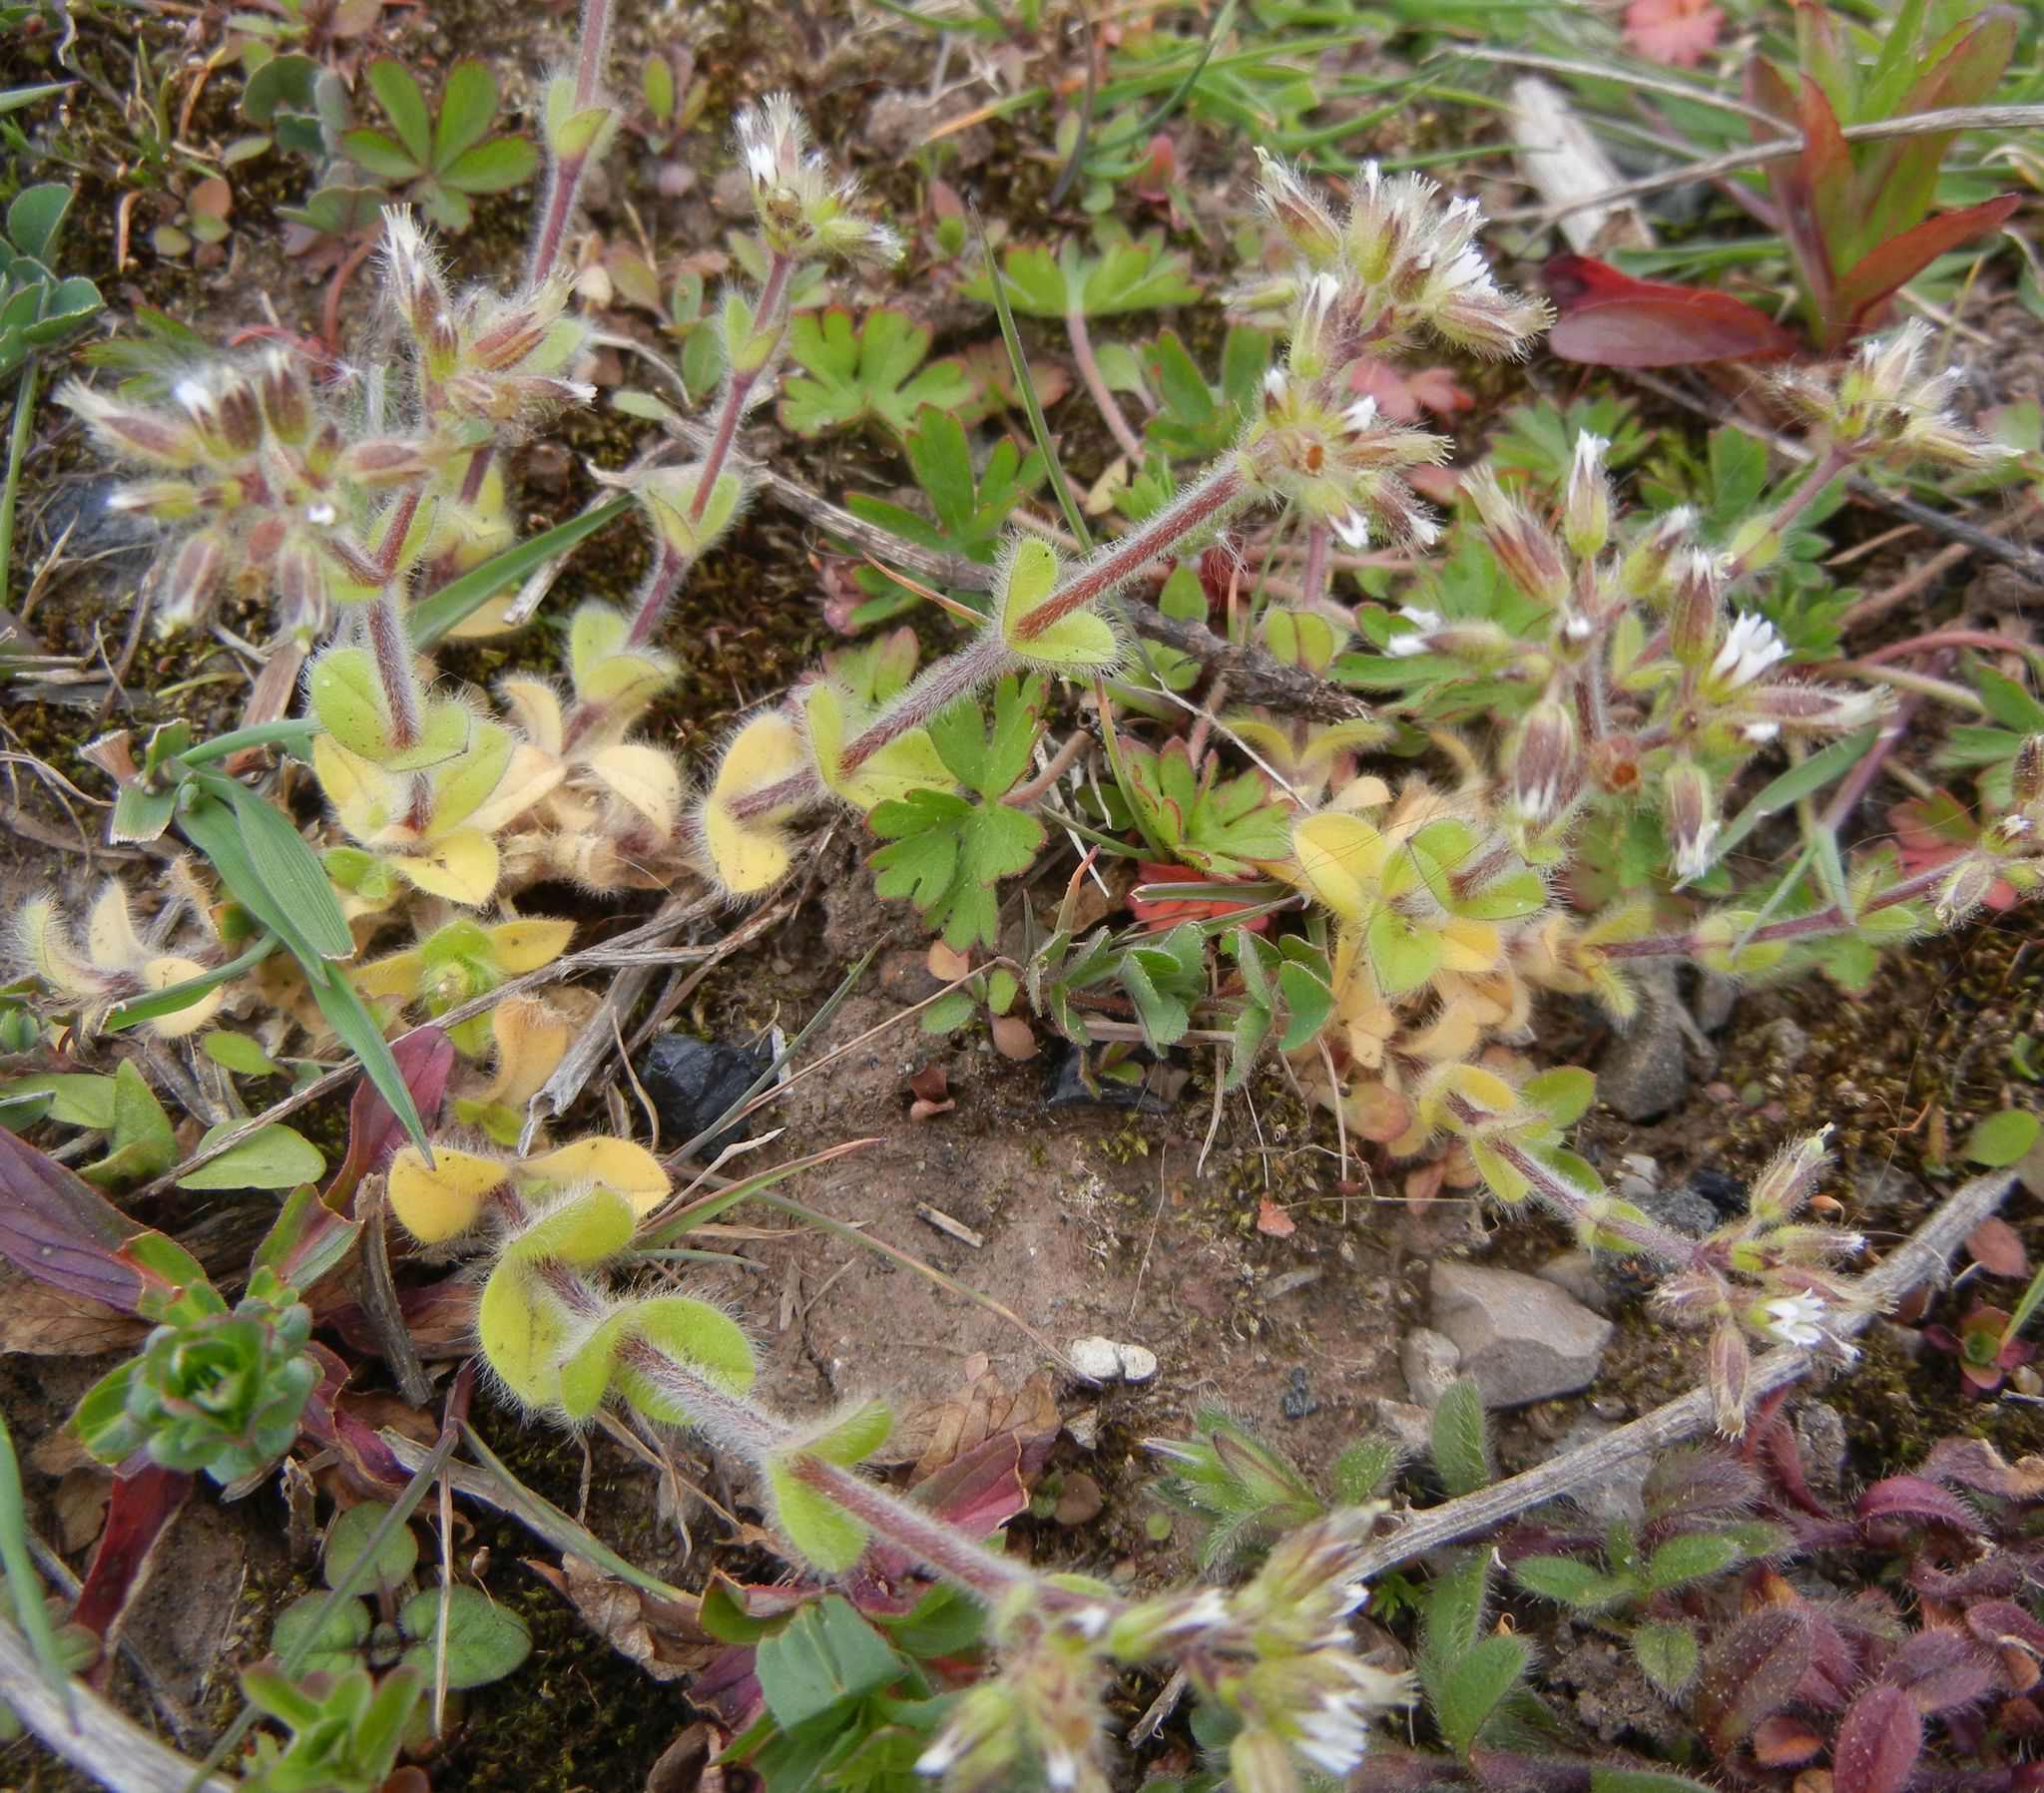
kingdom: Plantae
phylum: Tracheophyta
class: Magnoliopsida
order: Caryophyllales
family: Caryophyllaceae
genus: Cerastium
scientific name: Cerastium glomeratum
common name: Sticky chickweed
